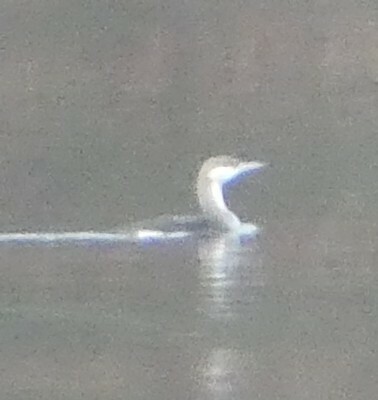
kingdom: Animalia
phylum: Chordata
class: Aves
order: Gaviiformes
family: Gaviidae
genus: Gavia
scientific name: Gavia arctica
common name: Black-throated loon
